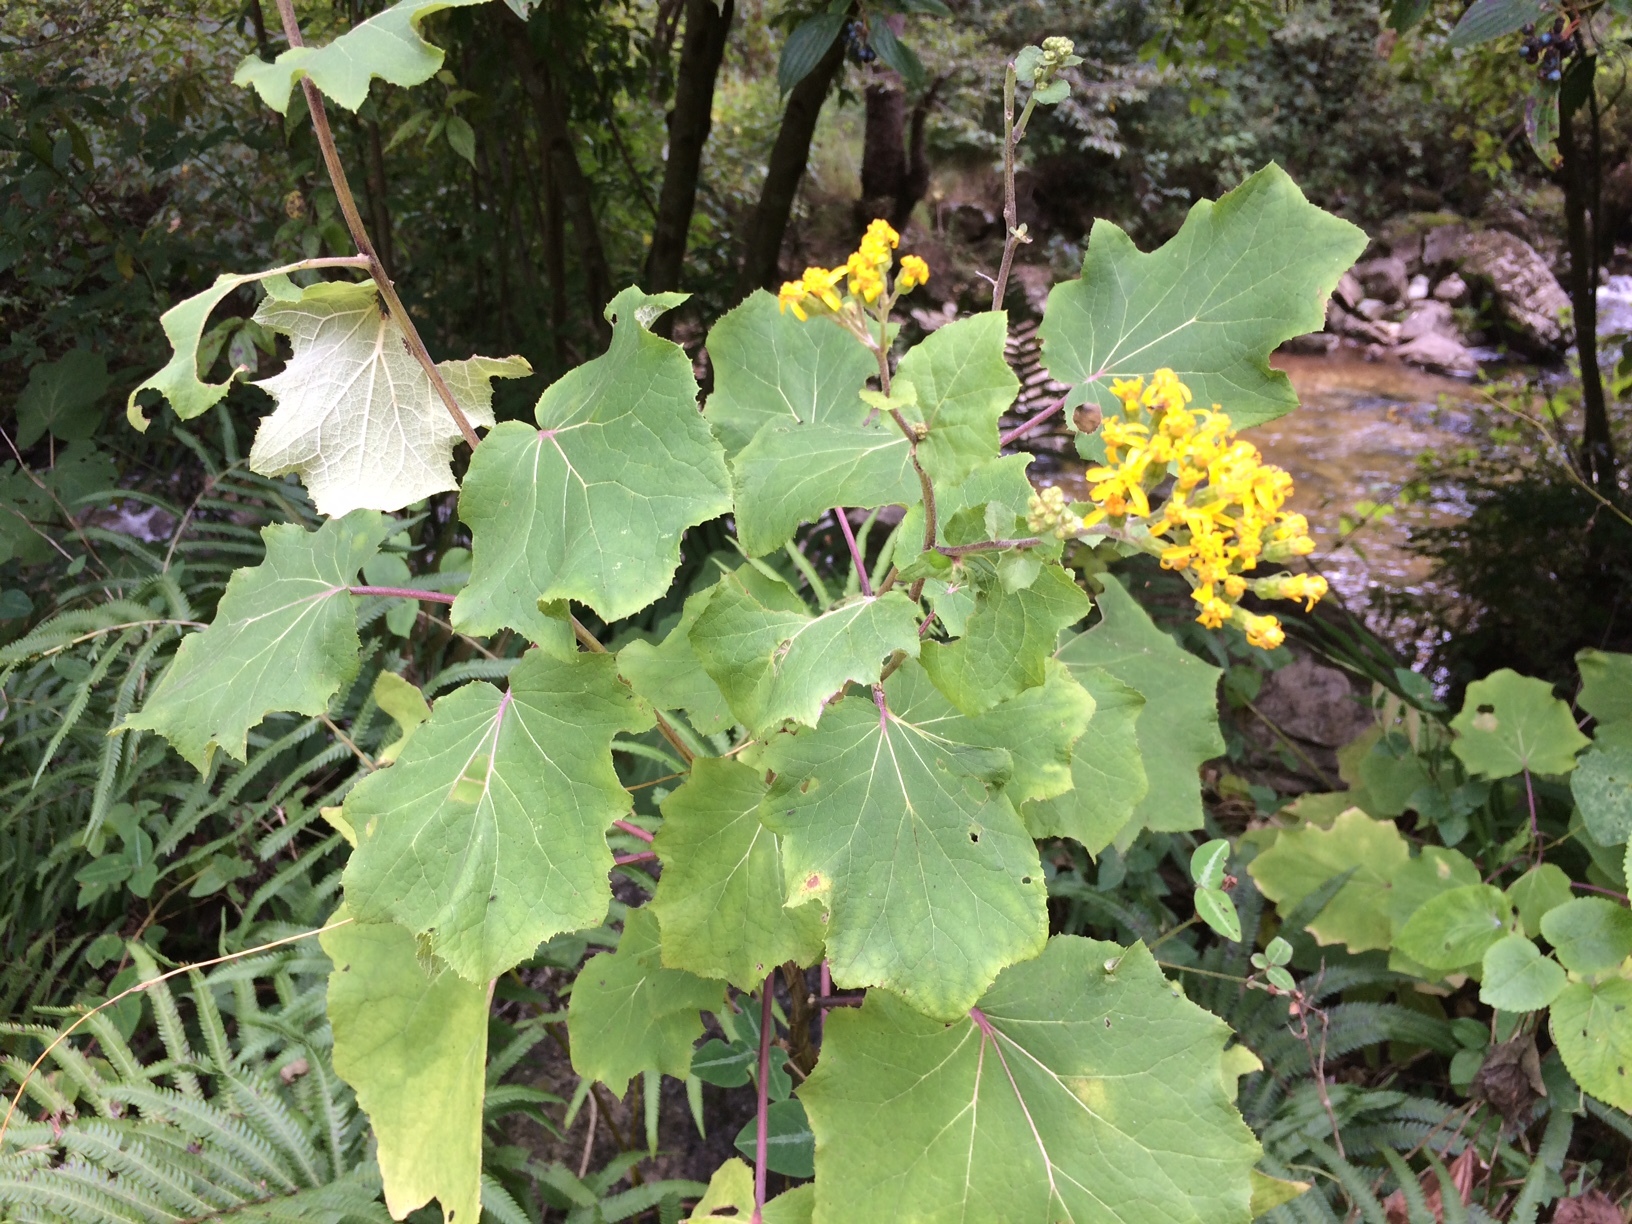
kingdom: Plantae
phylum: Tracheophyta
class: Magnoliopsida
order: Asterales
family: Asteraceae
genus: Roldana
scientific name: Roldana oaxacana
